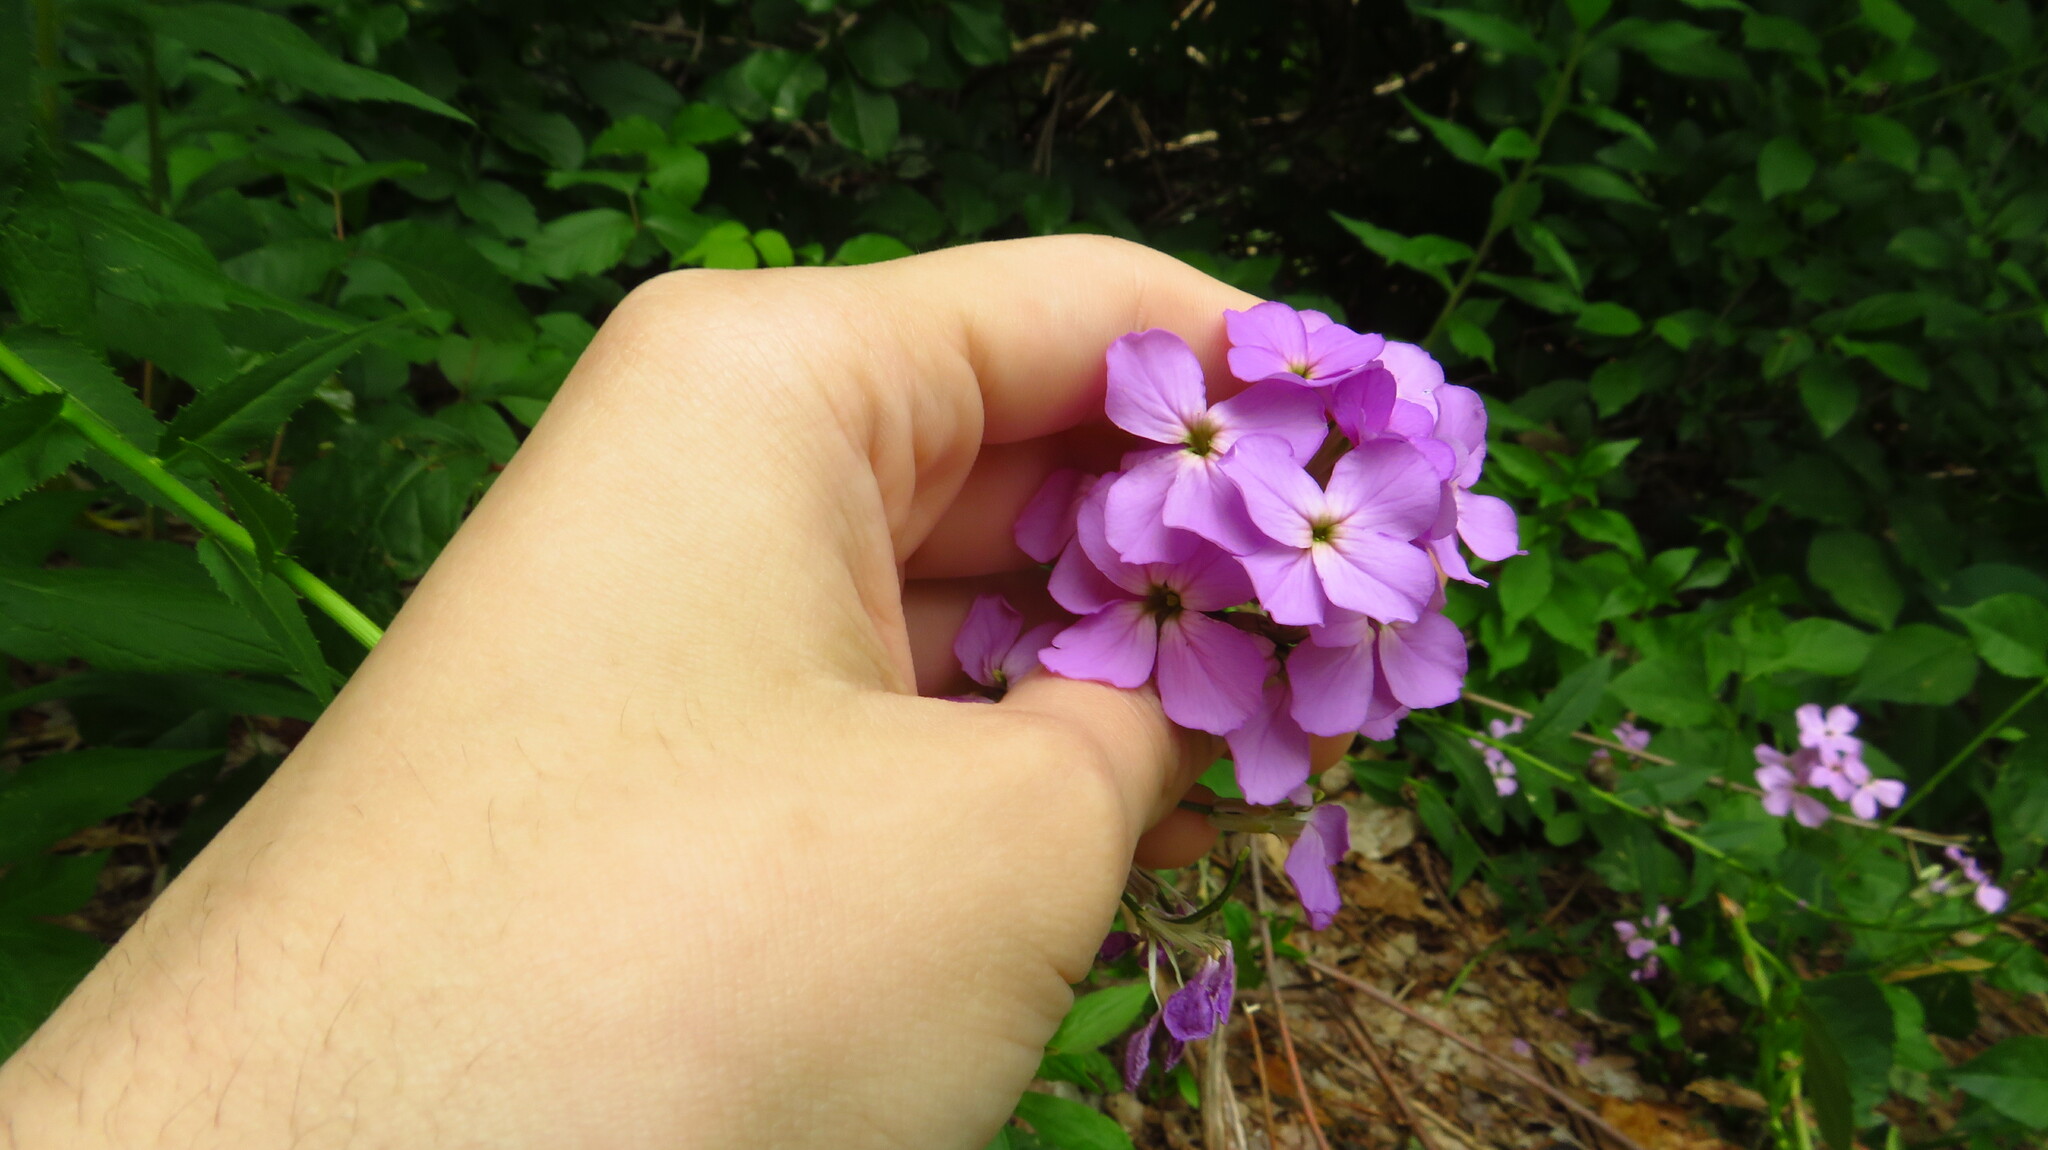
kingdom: Plantae
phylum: Tracheophyta
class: Magnoliopsida
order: Brassicales
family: Brassicaceae
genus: Hesperis
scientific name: Hesperis matronalis
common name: Dame's-violet
